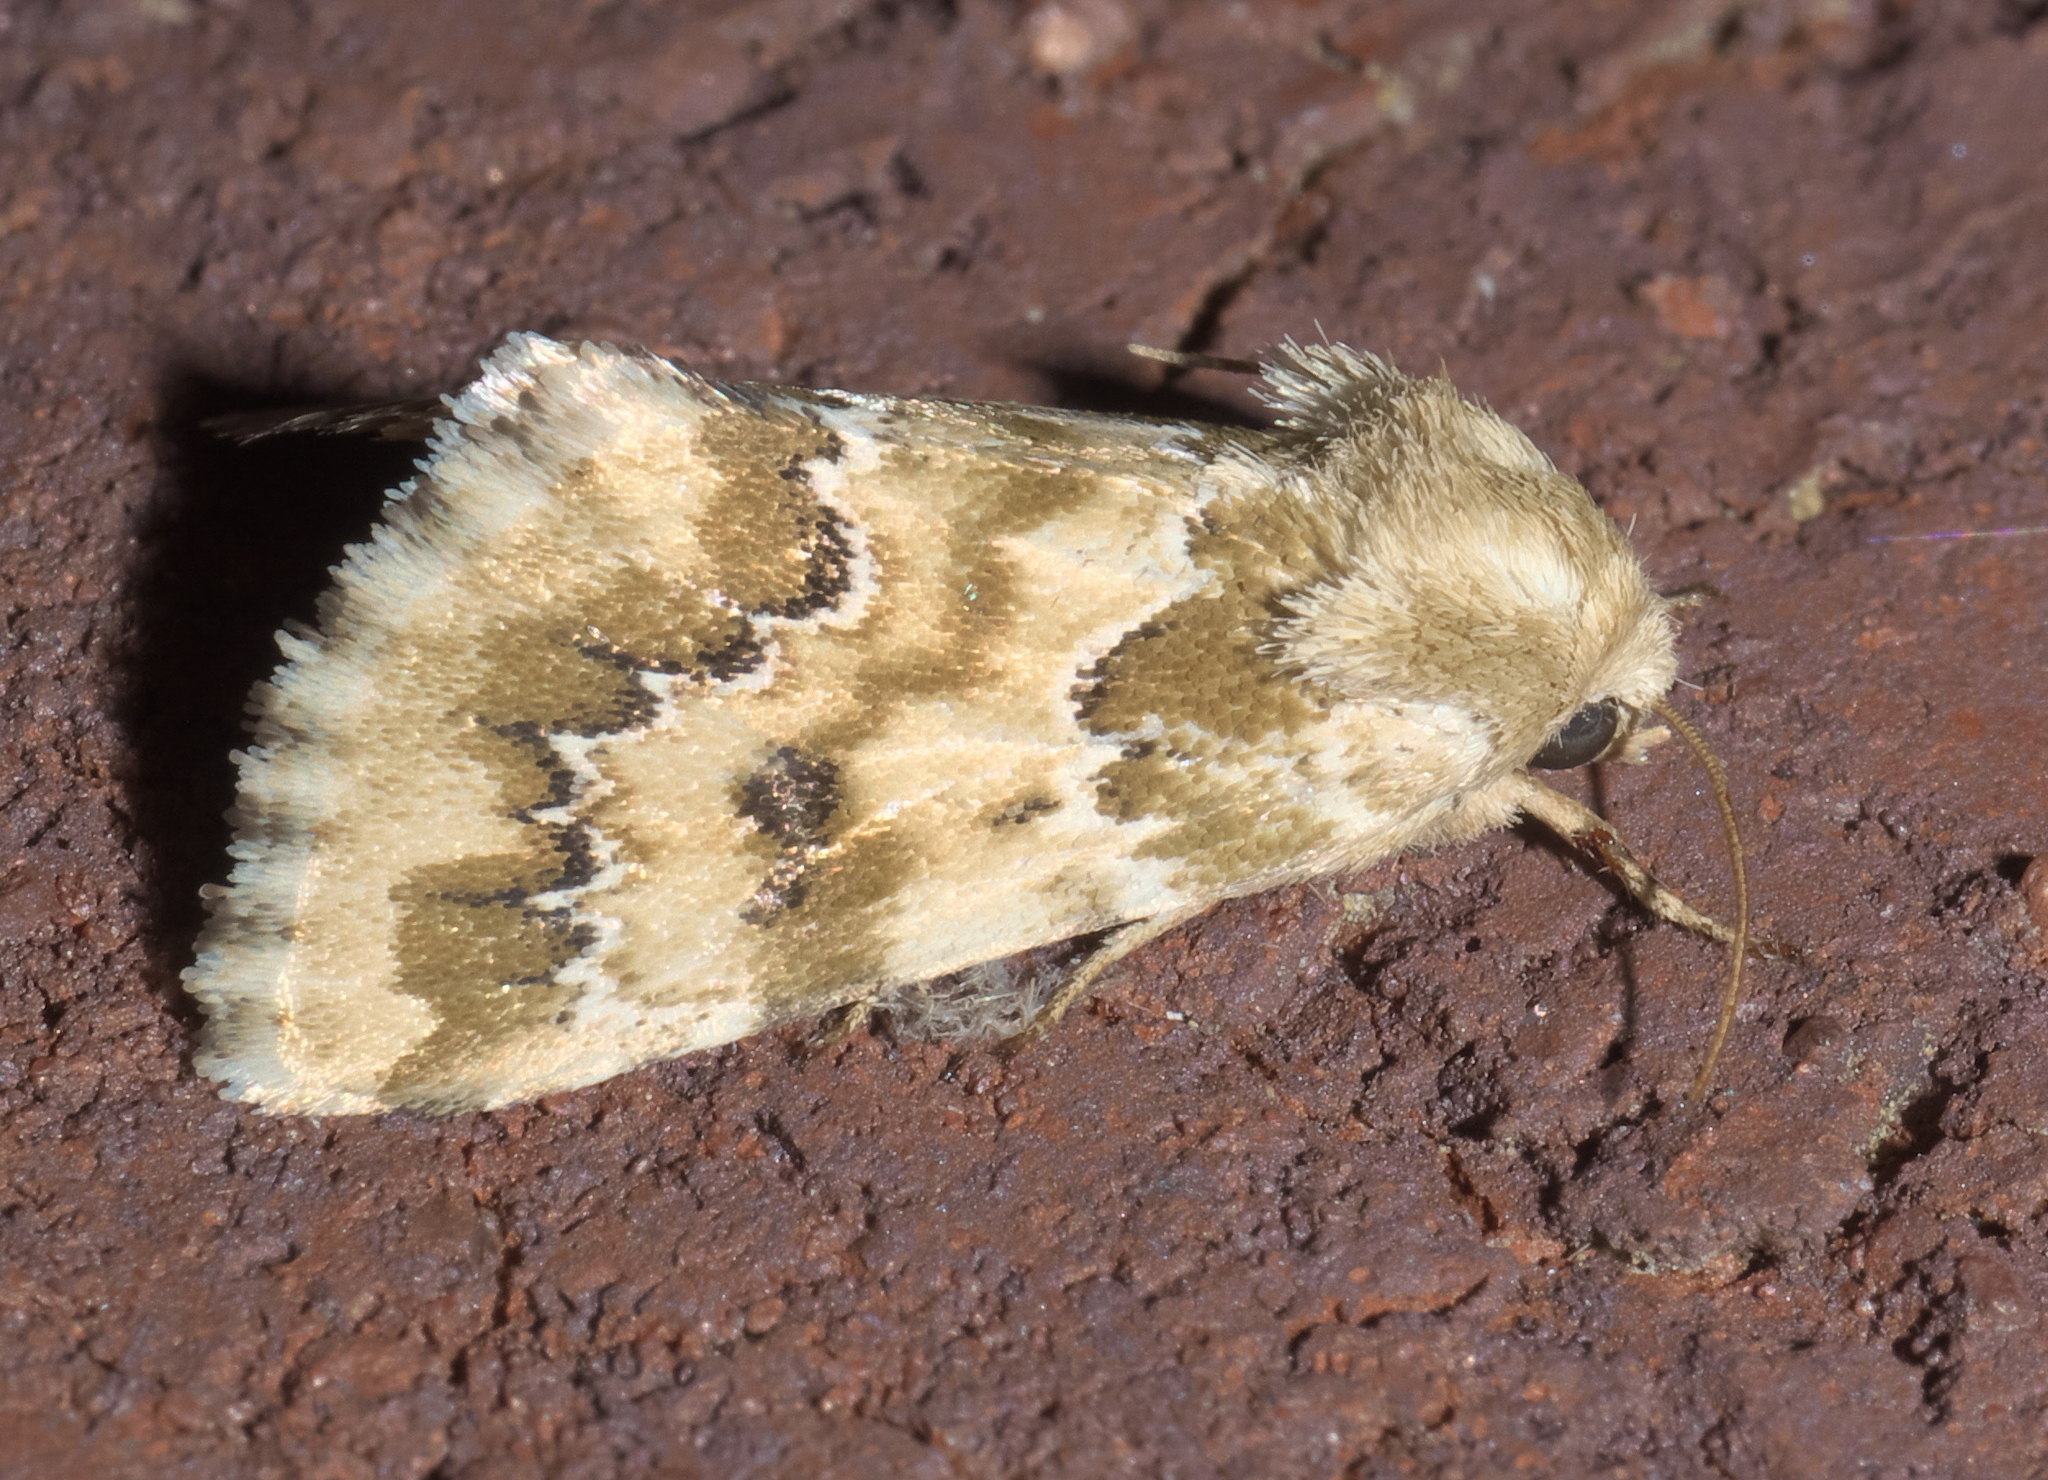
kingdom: Animalia
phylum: Arthropoda
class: Insecta
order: Lepidoptera
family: Noctuidae
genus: Schinia
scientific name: Schinia crenilinea
